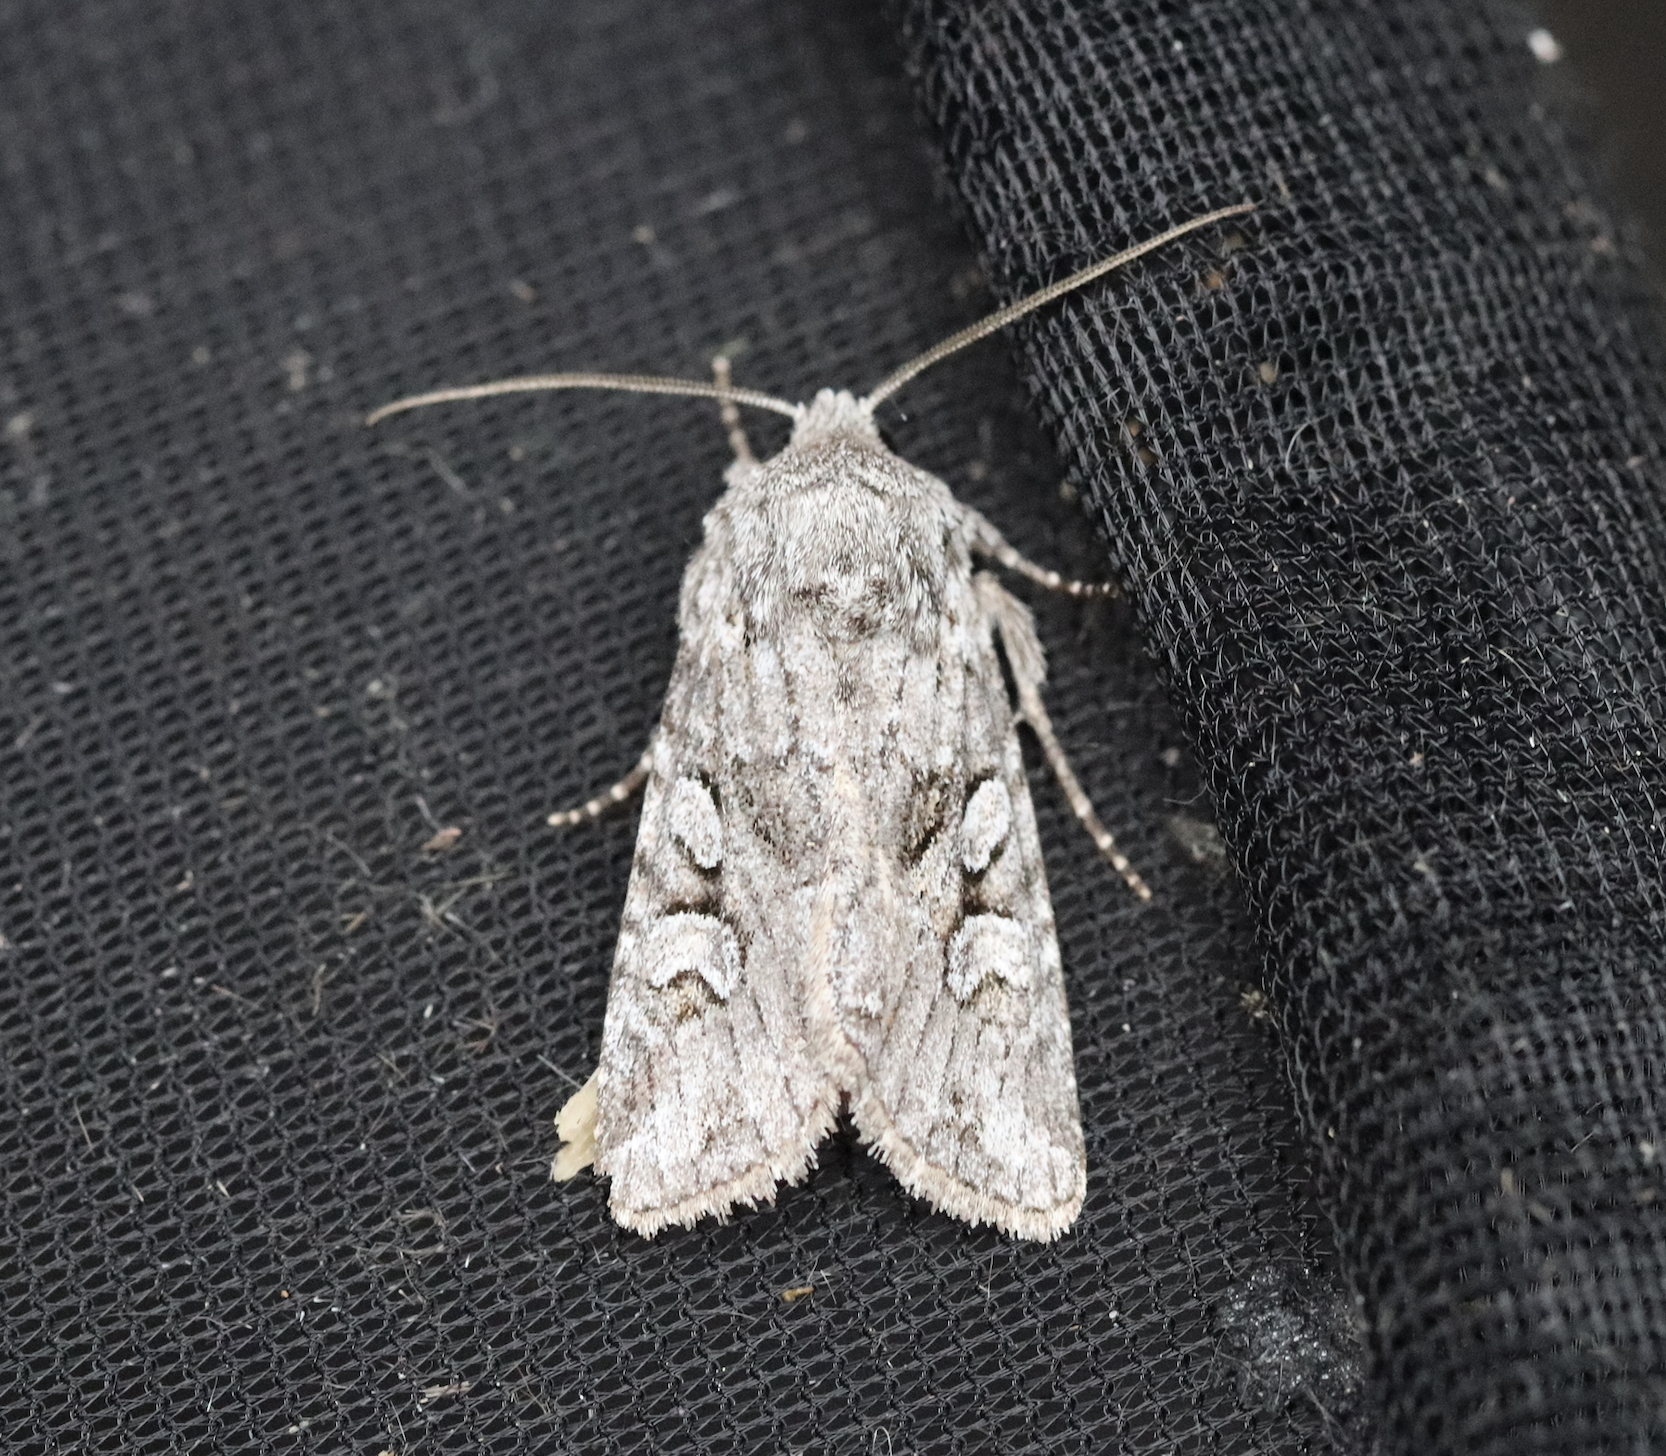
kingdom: Animalia
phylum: Arthropoda
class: Insecta
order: Lepidoptera
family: Noctuidae
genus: Lasionycta
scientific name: Lasionycta proxima
